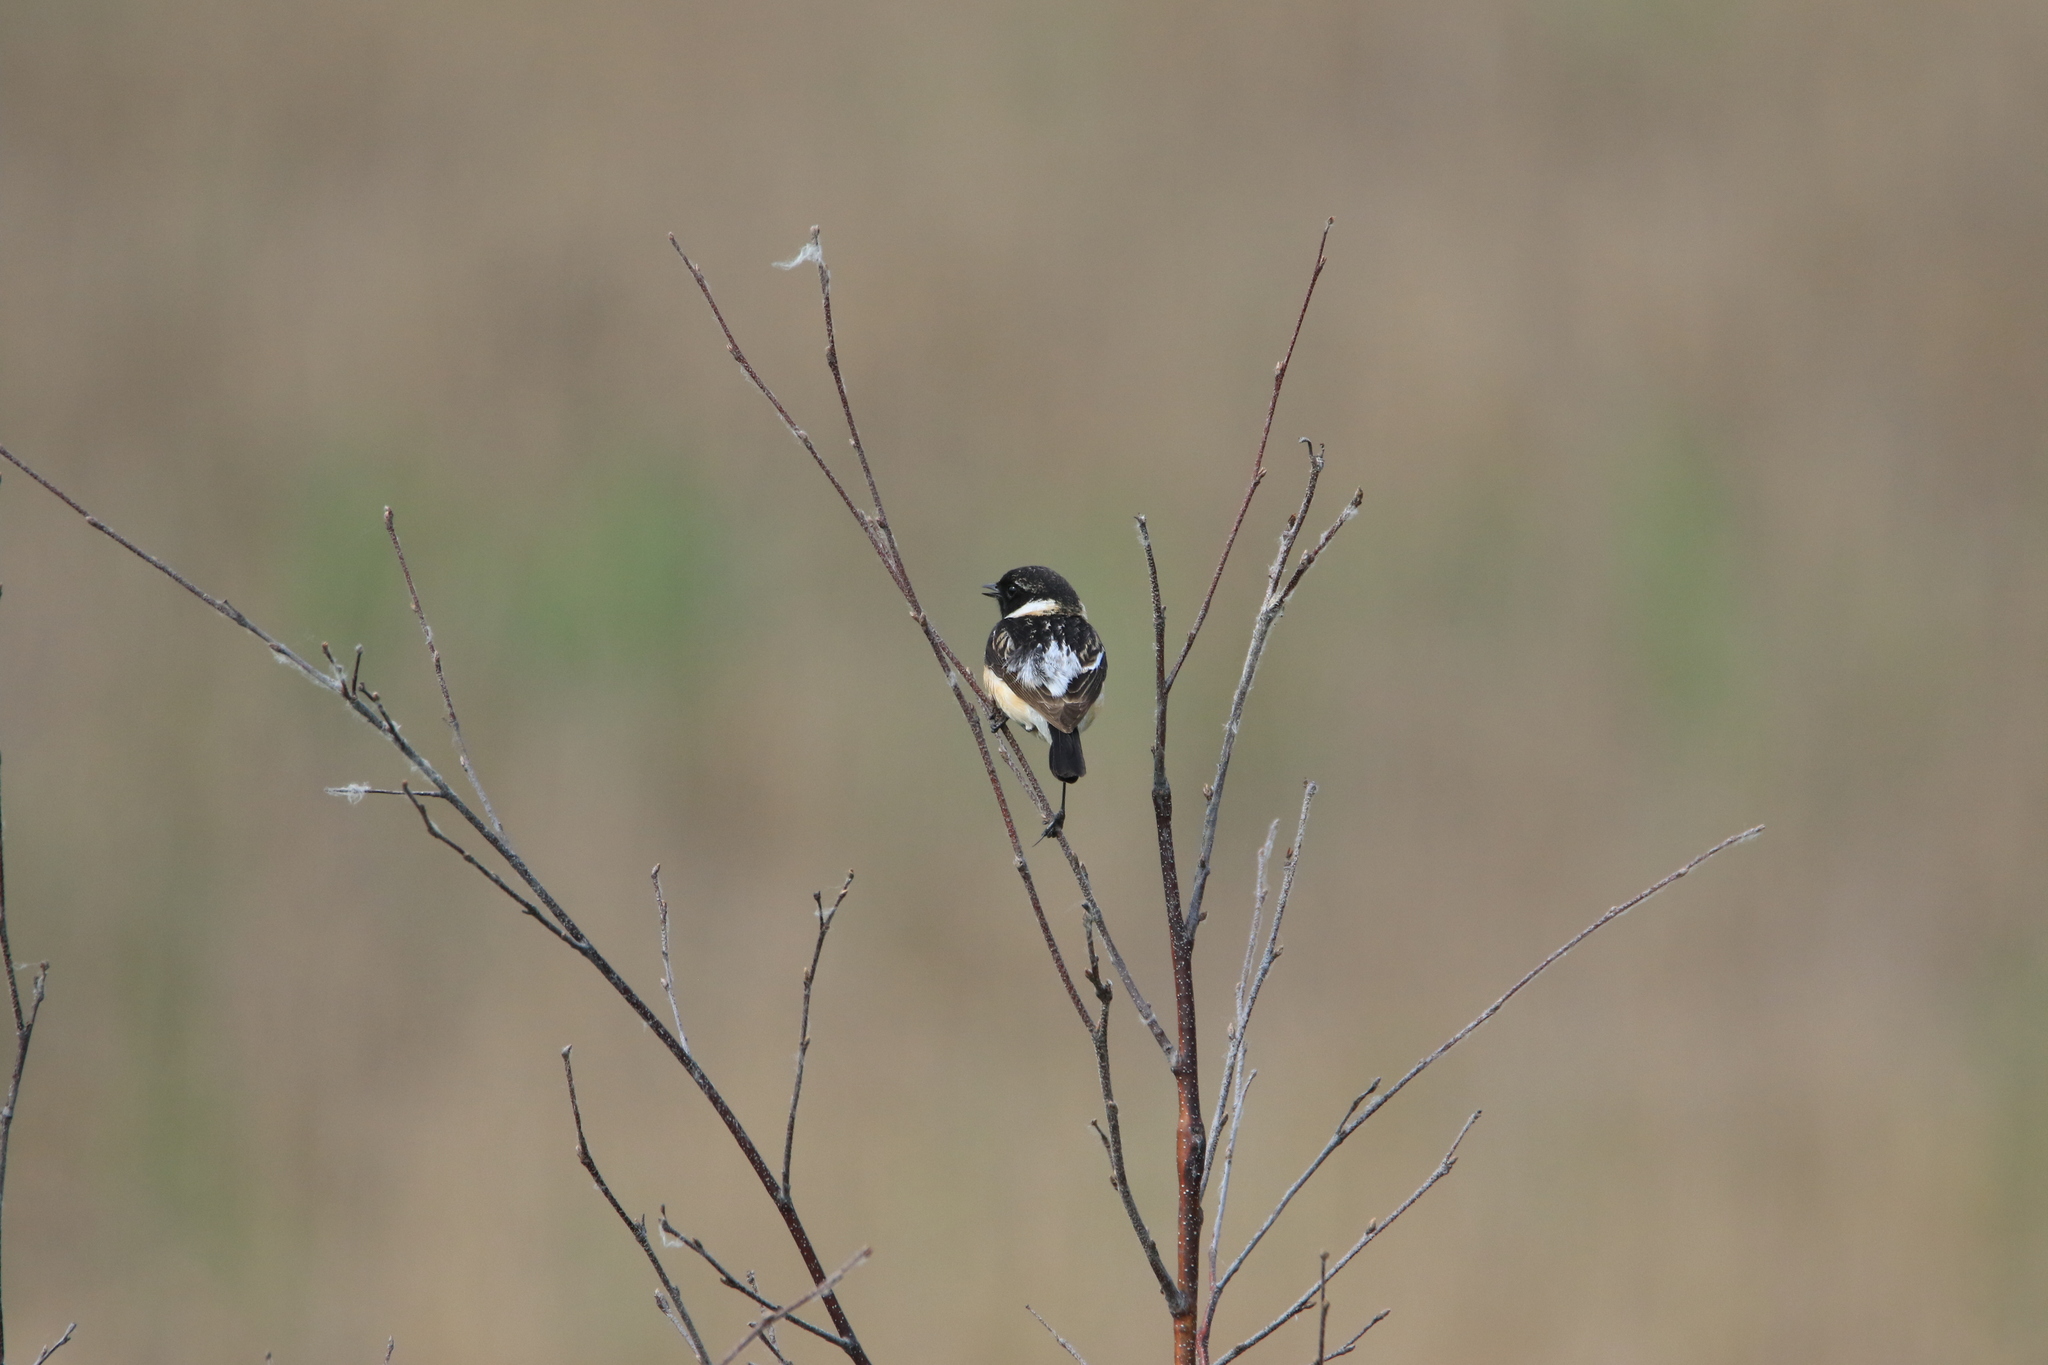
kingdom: Animalia
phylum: Chordata
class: Aves
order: Passeriformes
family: Muscicapidae
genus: Saxicola
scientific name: Saxicola maurus
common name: Siberian stonechat
